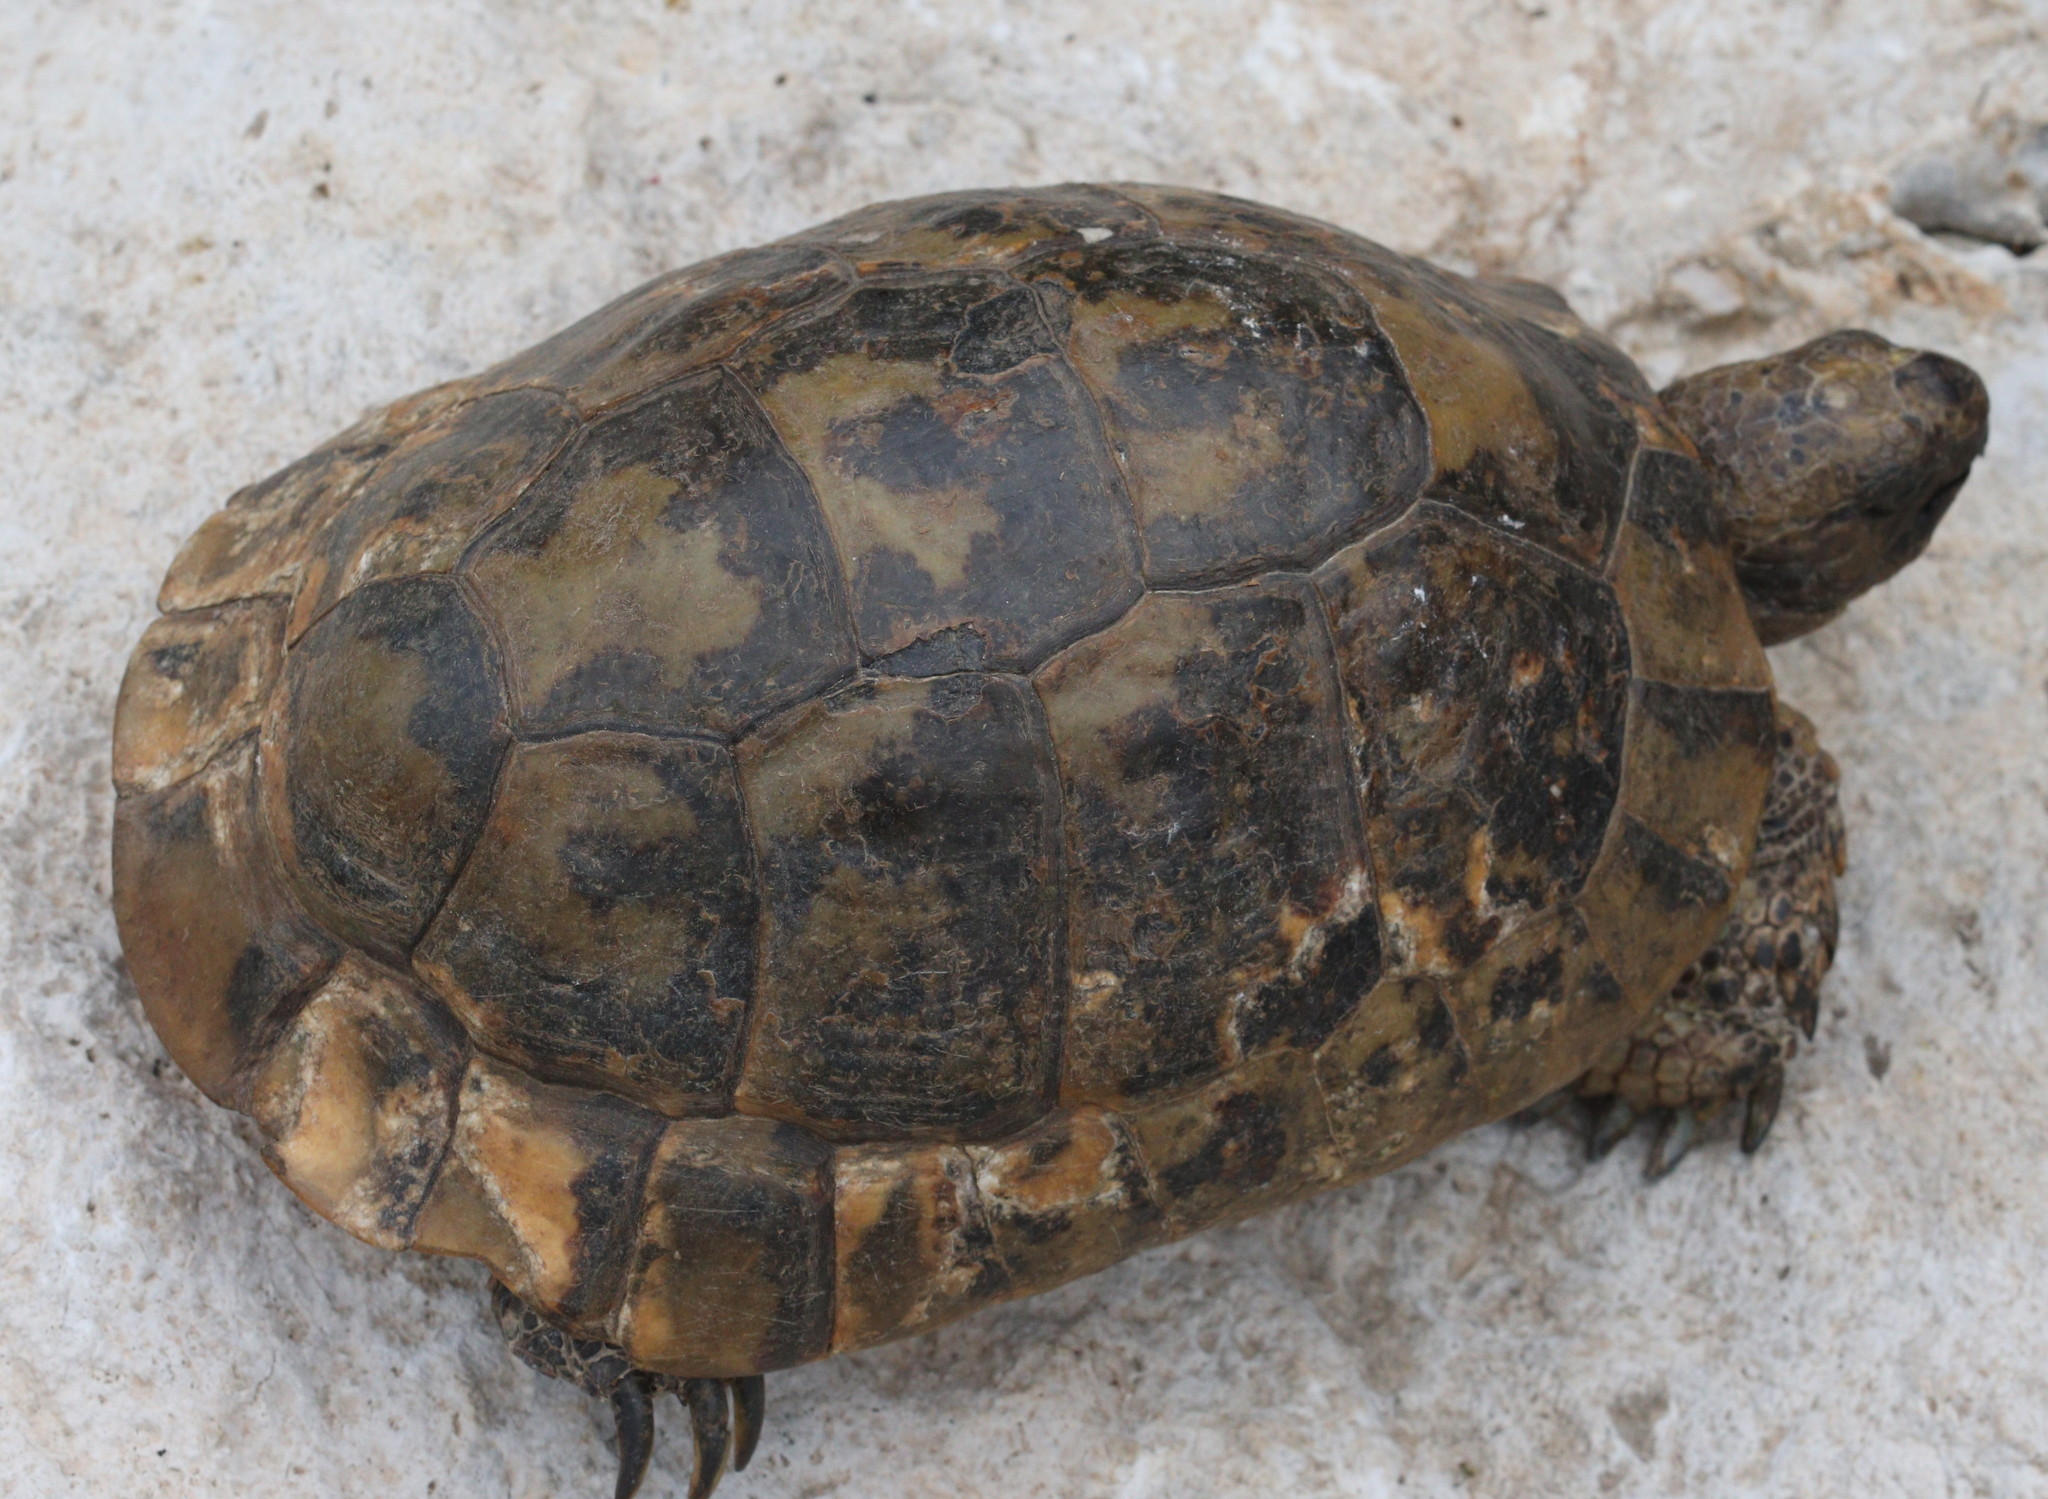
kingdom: Animalia
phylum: Chordata
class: Testudines
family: Testudinidae
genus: Testudo
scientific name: Testudo graeca
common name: Common tortoise
